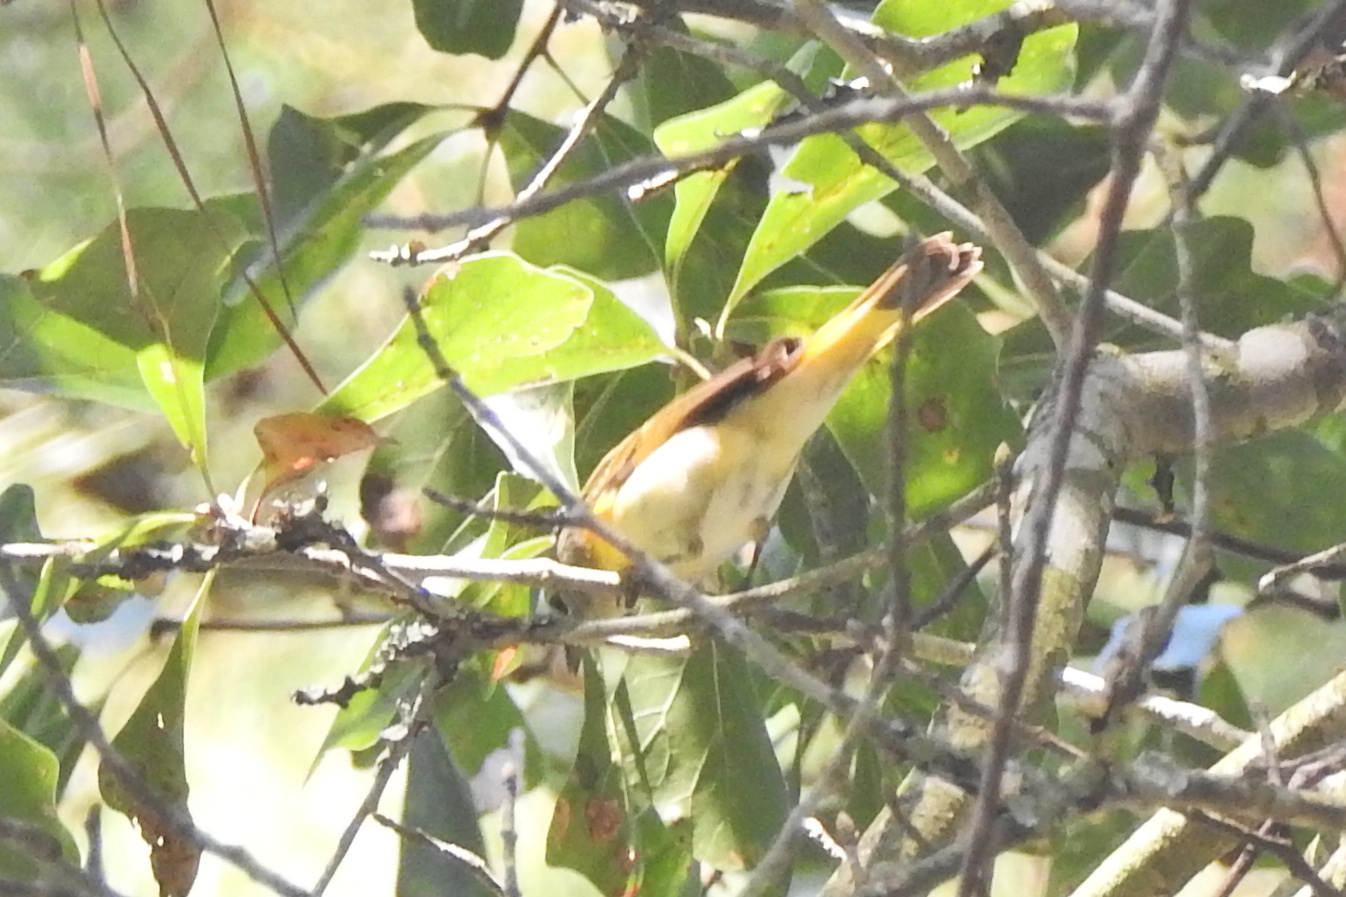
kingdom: Animalia
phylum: Chordata
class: Aves
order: Passeriformes
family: Parulidae
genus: Setophaga
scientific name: Setophaga ruticilla
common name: American redstart
